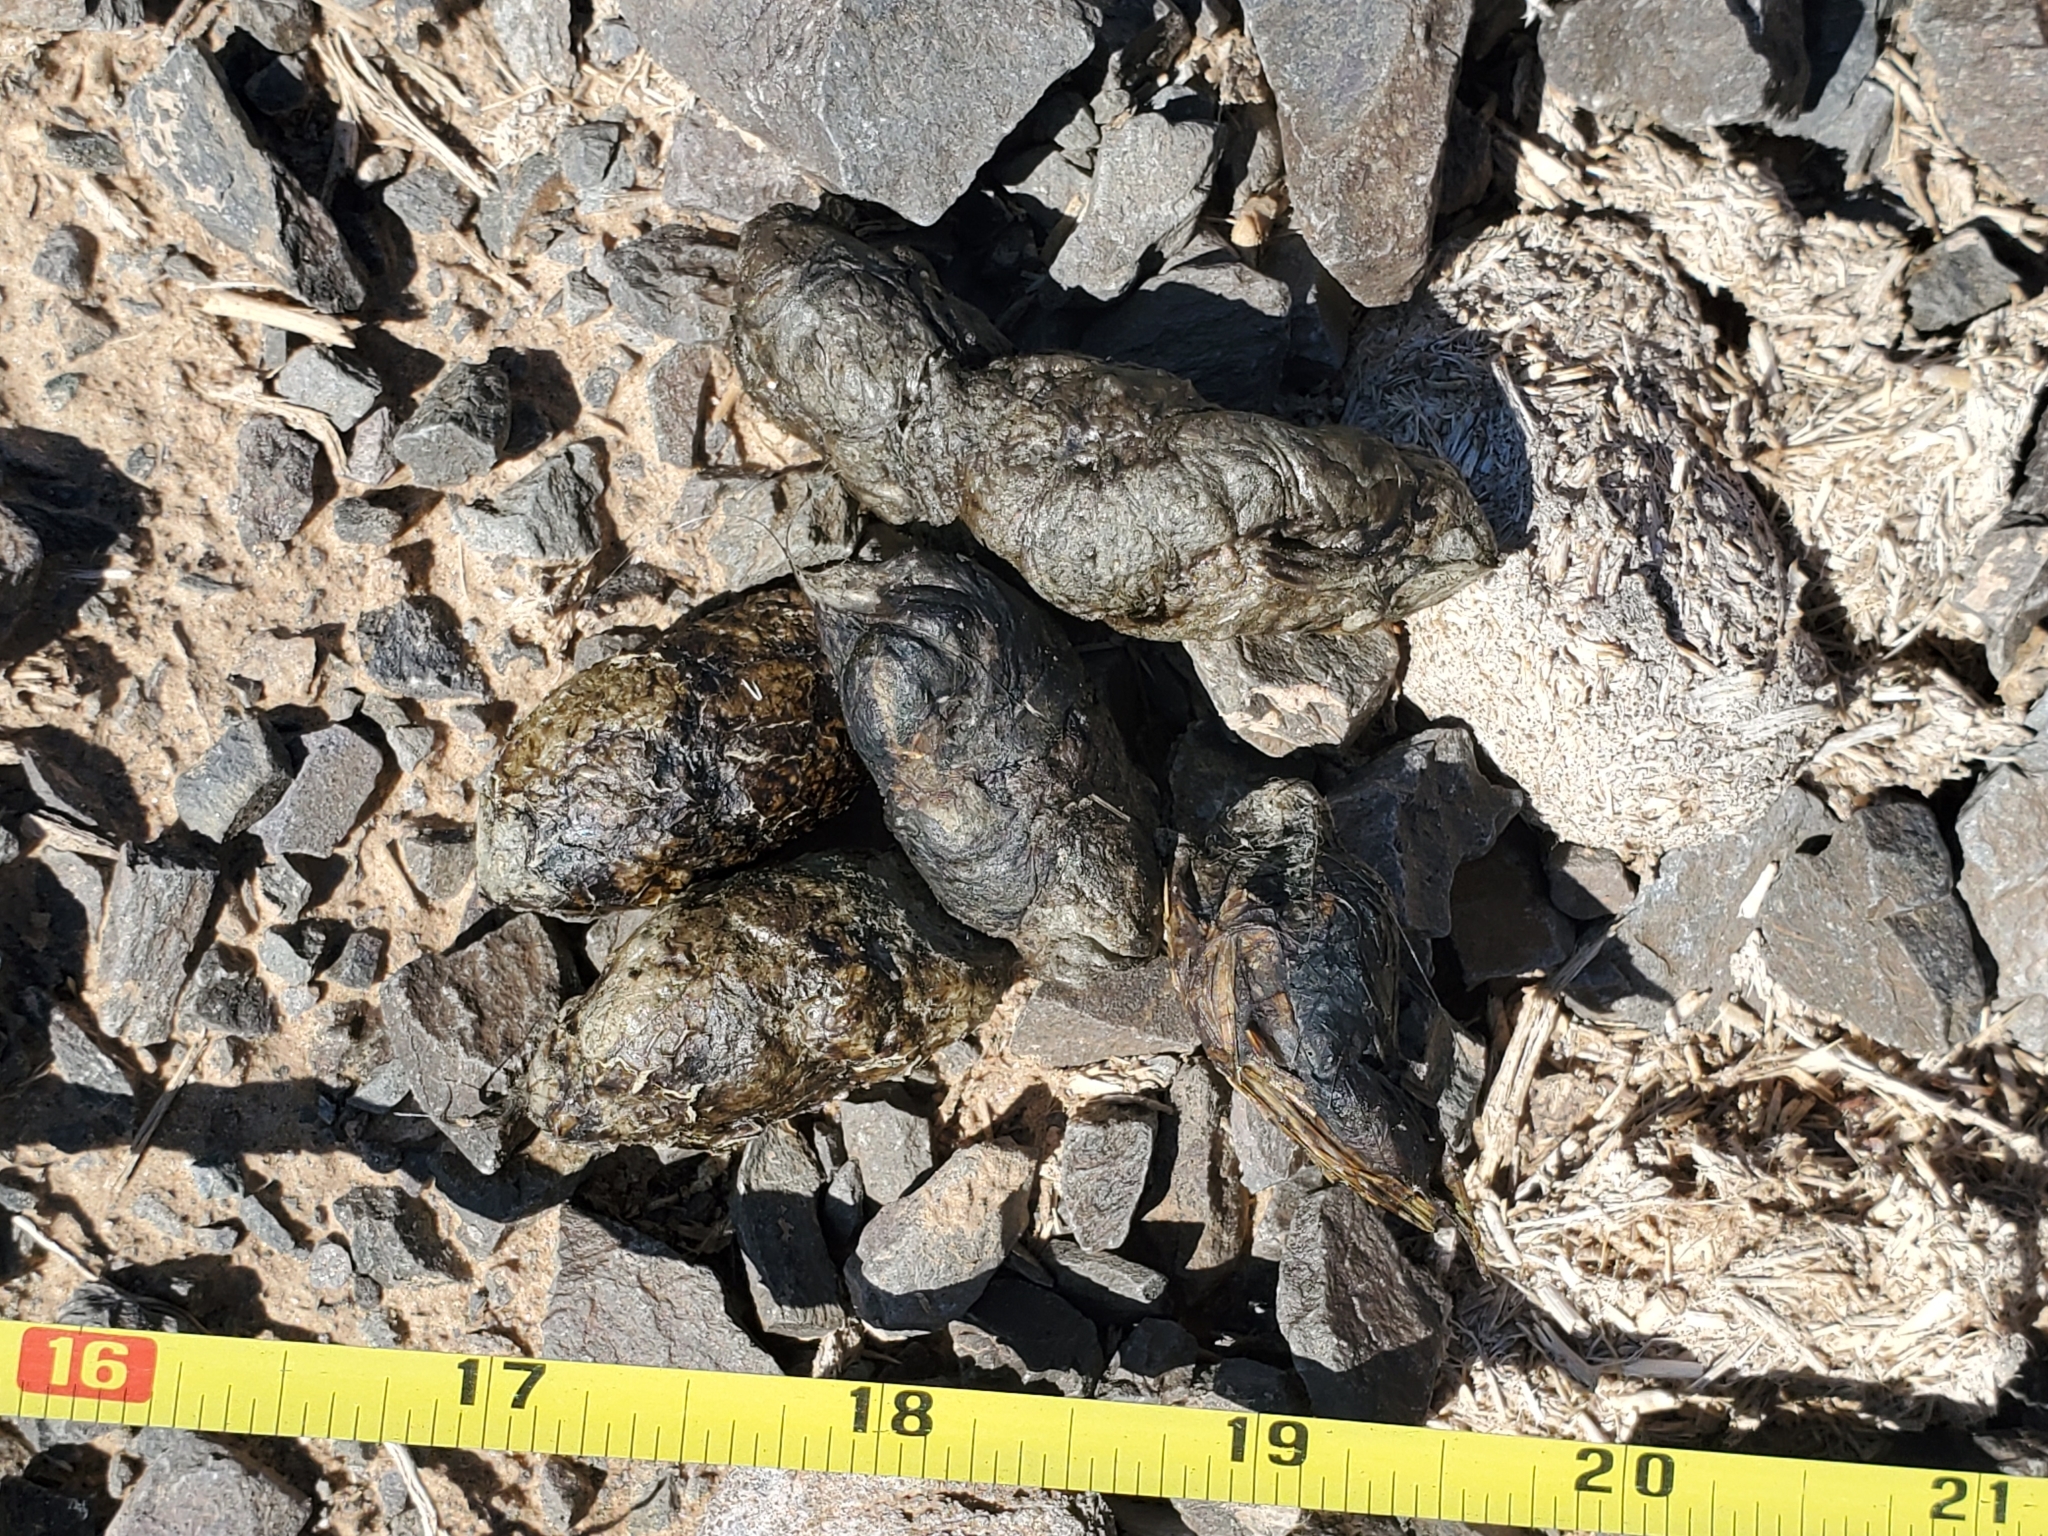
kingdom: Animalia
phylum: Chordata
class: Mammalia
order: Carnivora
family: Felidae
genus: Lynx
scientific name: Lynx rufus
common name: Bobcat
